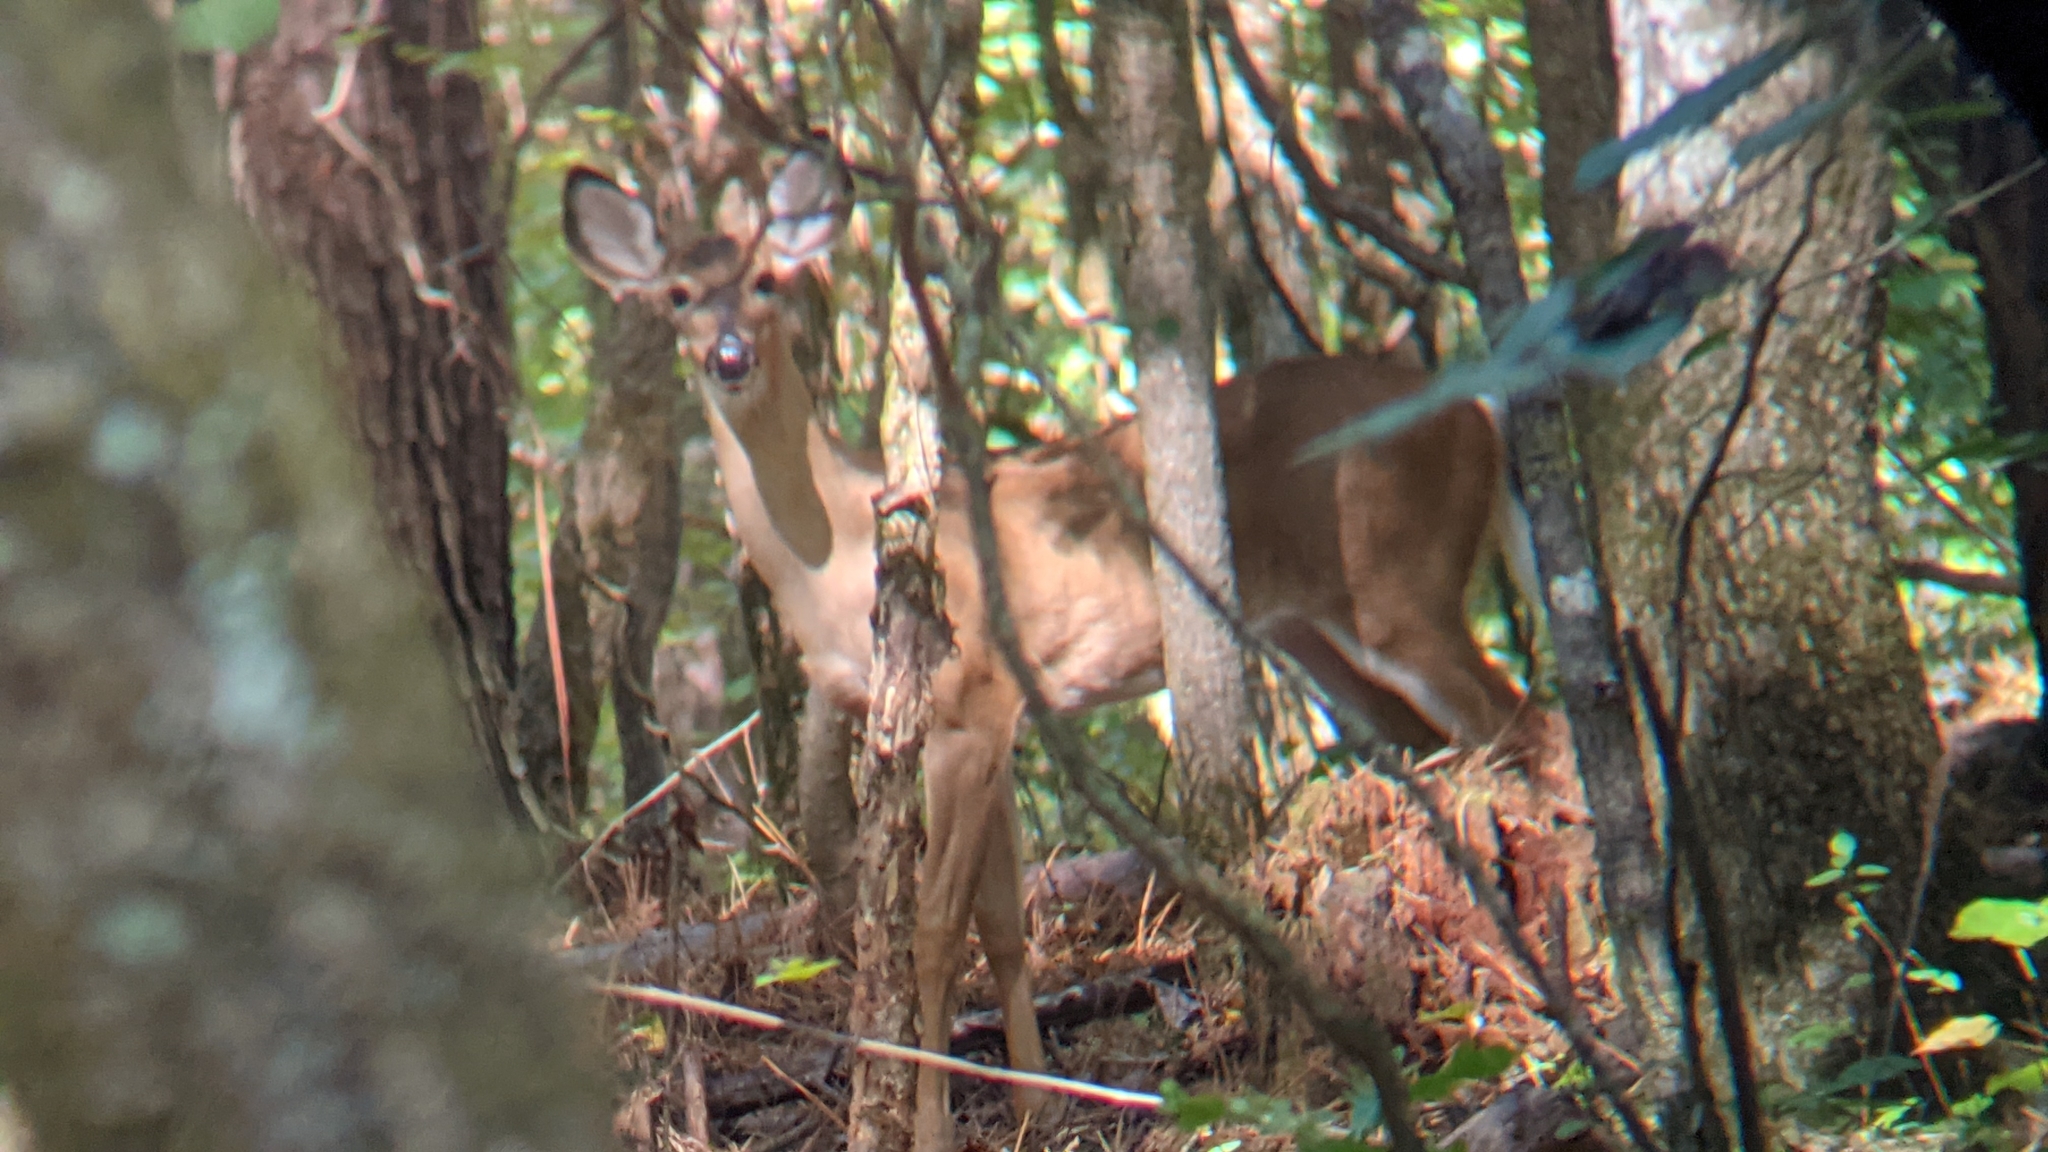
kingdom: Animalia
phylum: Chordata
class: Mammalia
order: Artiodactyla
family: Cervidae
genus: Odocoileus
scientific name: Odocoileus virginianus
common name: White-tailed deer
